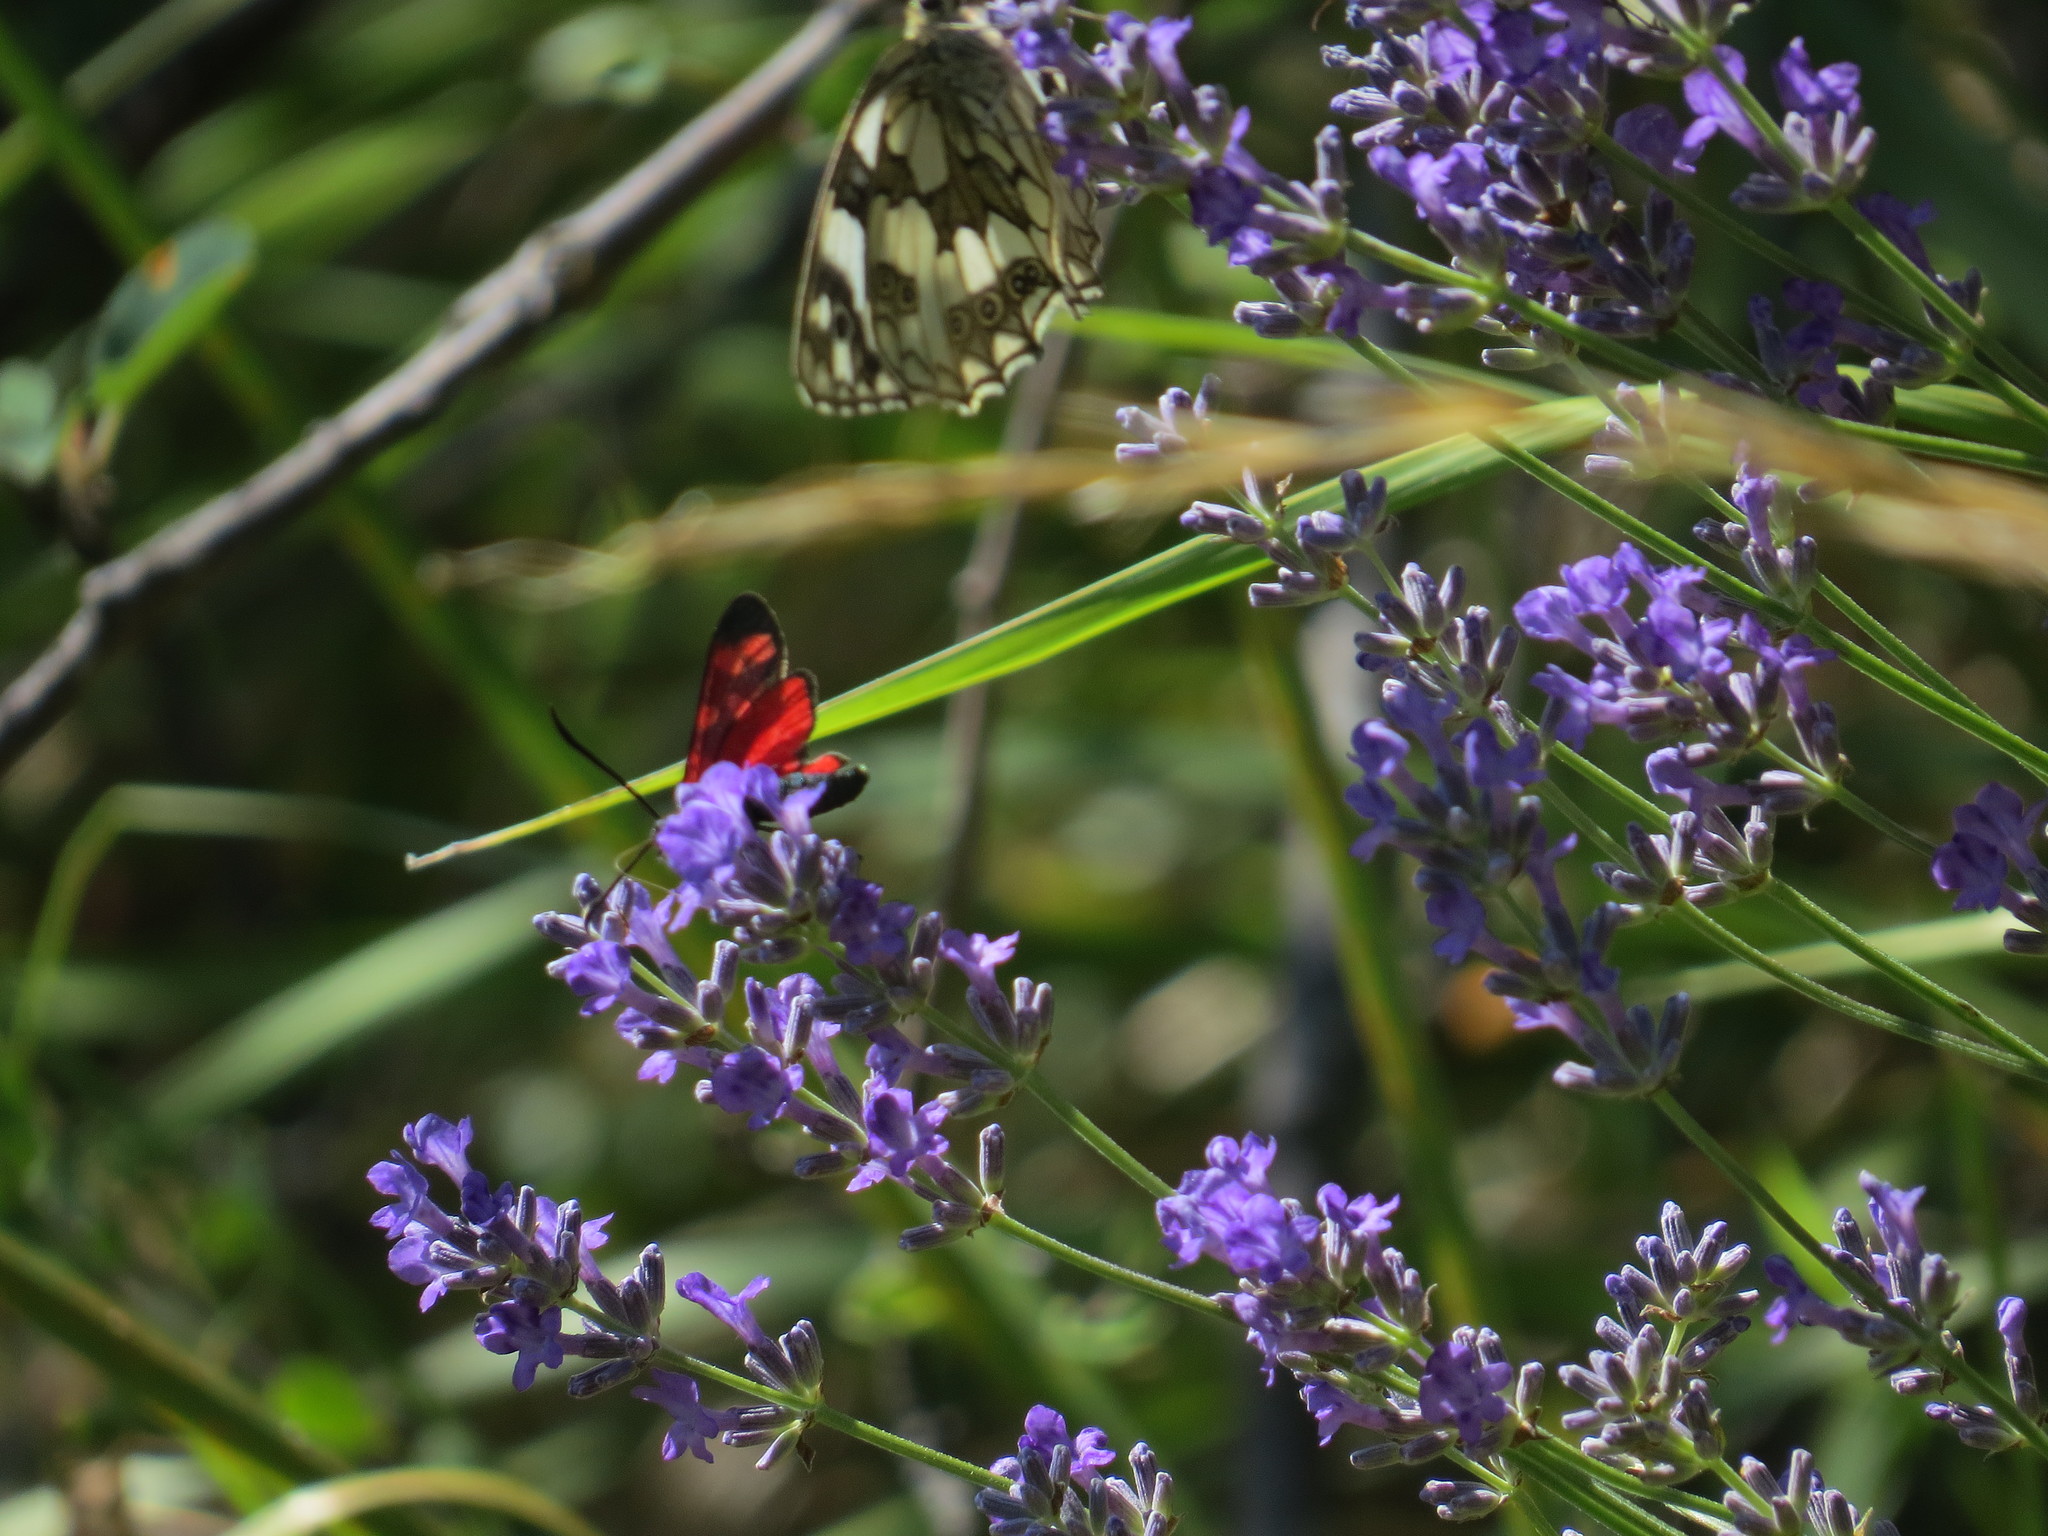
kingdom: Animalia
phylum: Arthropoda
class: Insecta
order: Lepidoptera
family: Zygaenidae
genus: Zygaena
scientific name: Zygaena transalpina
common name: Southern six spot burnet
